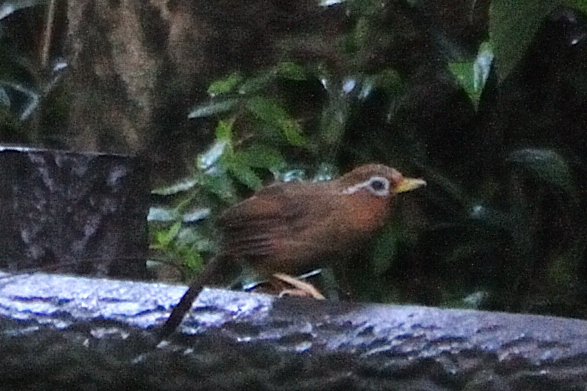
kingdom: Animalia
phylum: Chordata
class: Aves
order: Passeriformes
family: Leiothrichidae
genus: Garrulax
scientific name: Garrulax canorus
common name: Chinese hwamei
